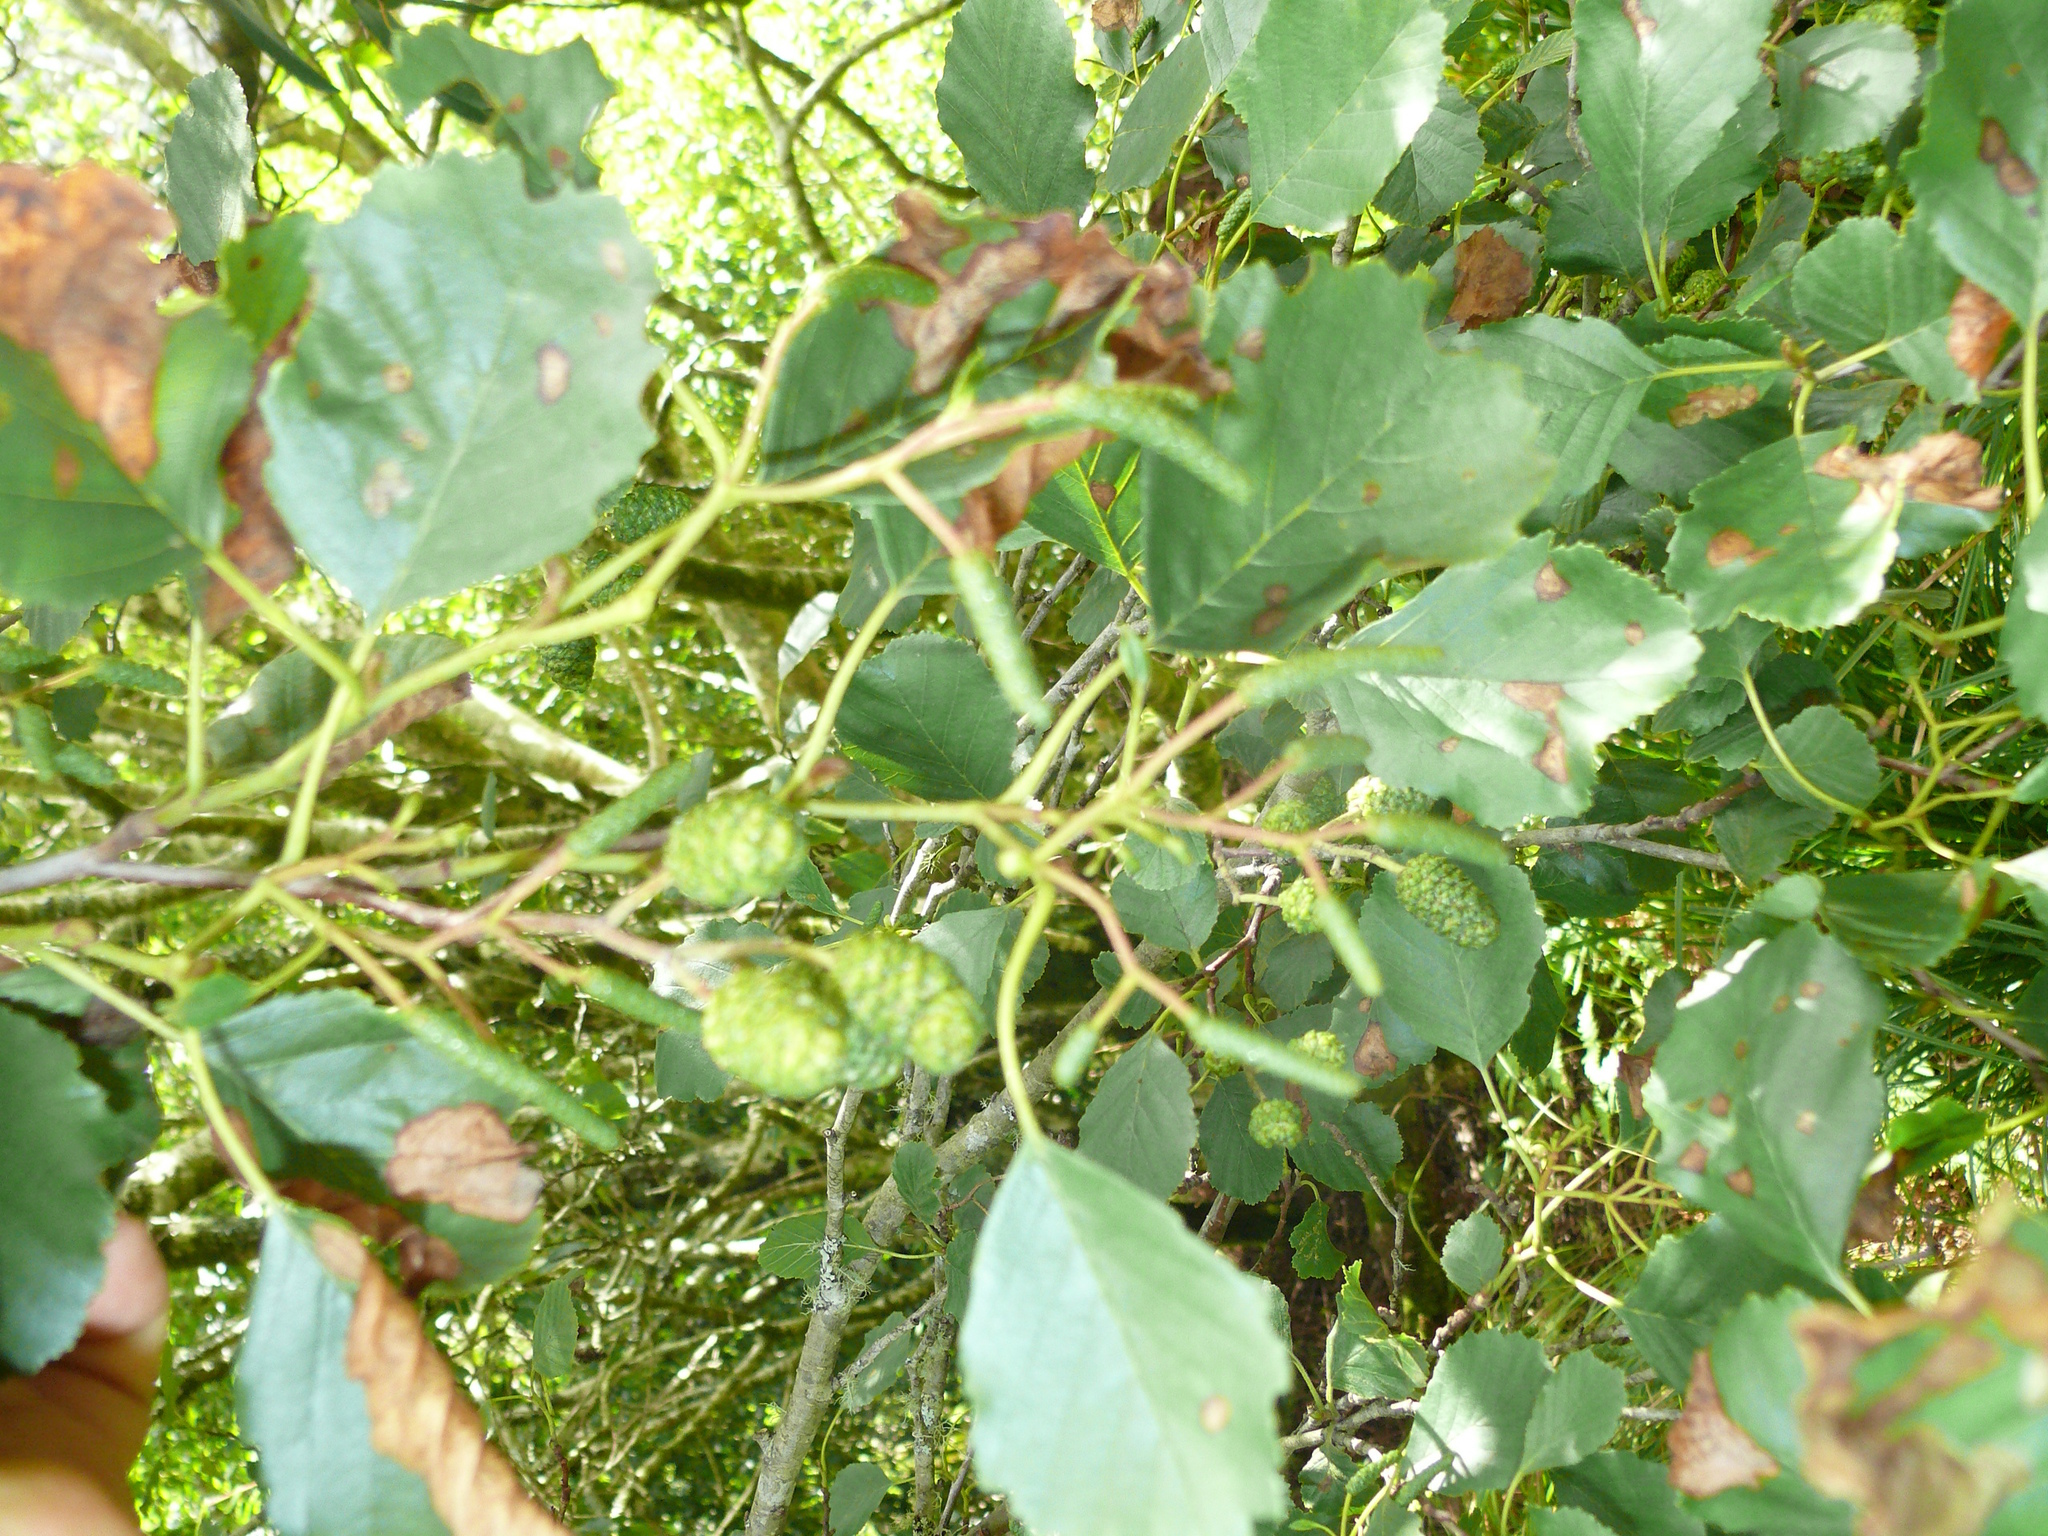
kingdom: Plantae
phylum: Tracheophyta
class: Magnoliopsida
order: Fagales
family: Betulaceae
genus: Betula
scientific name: Betula pendula
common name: Silver birch
